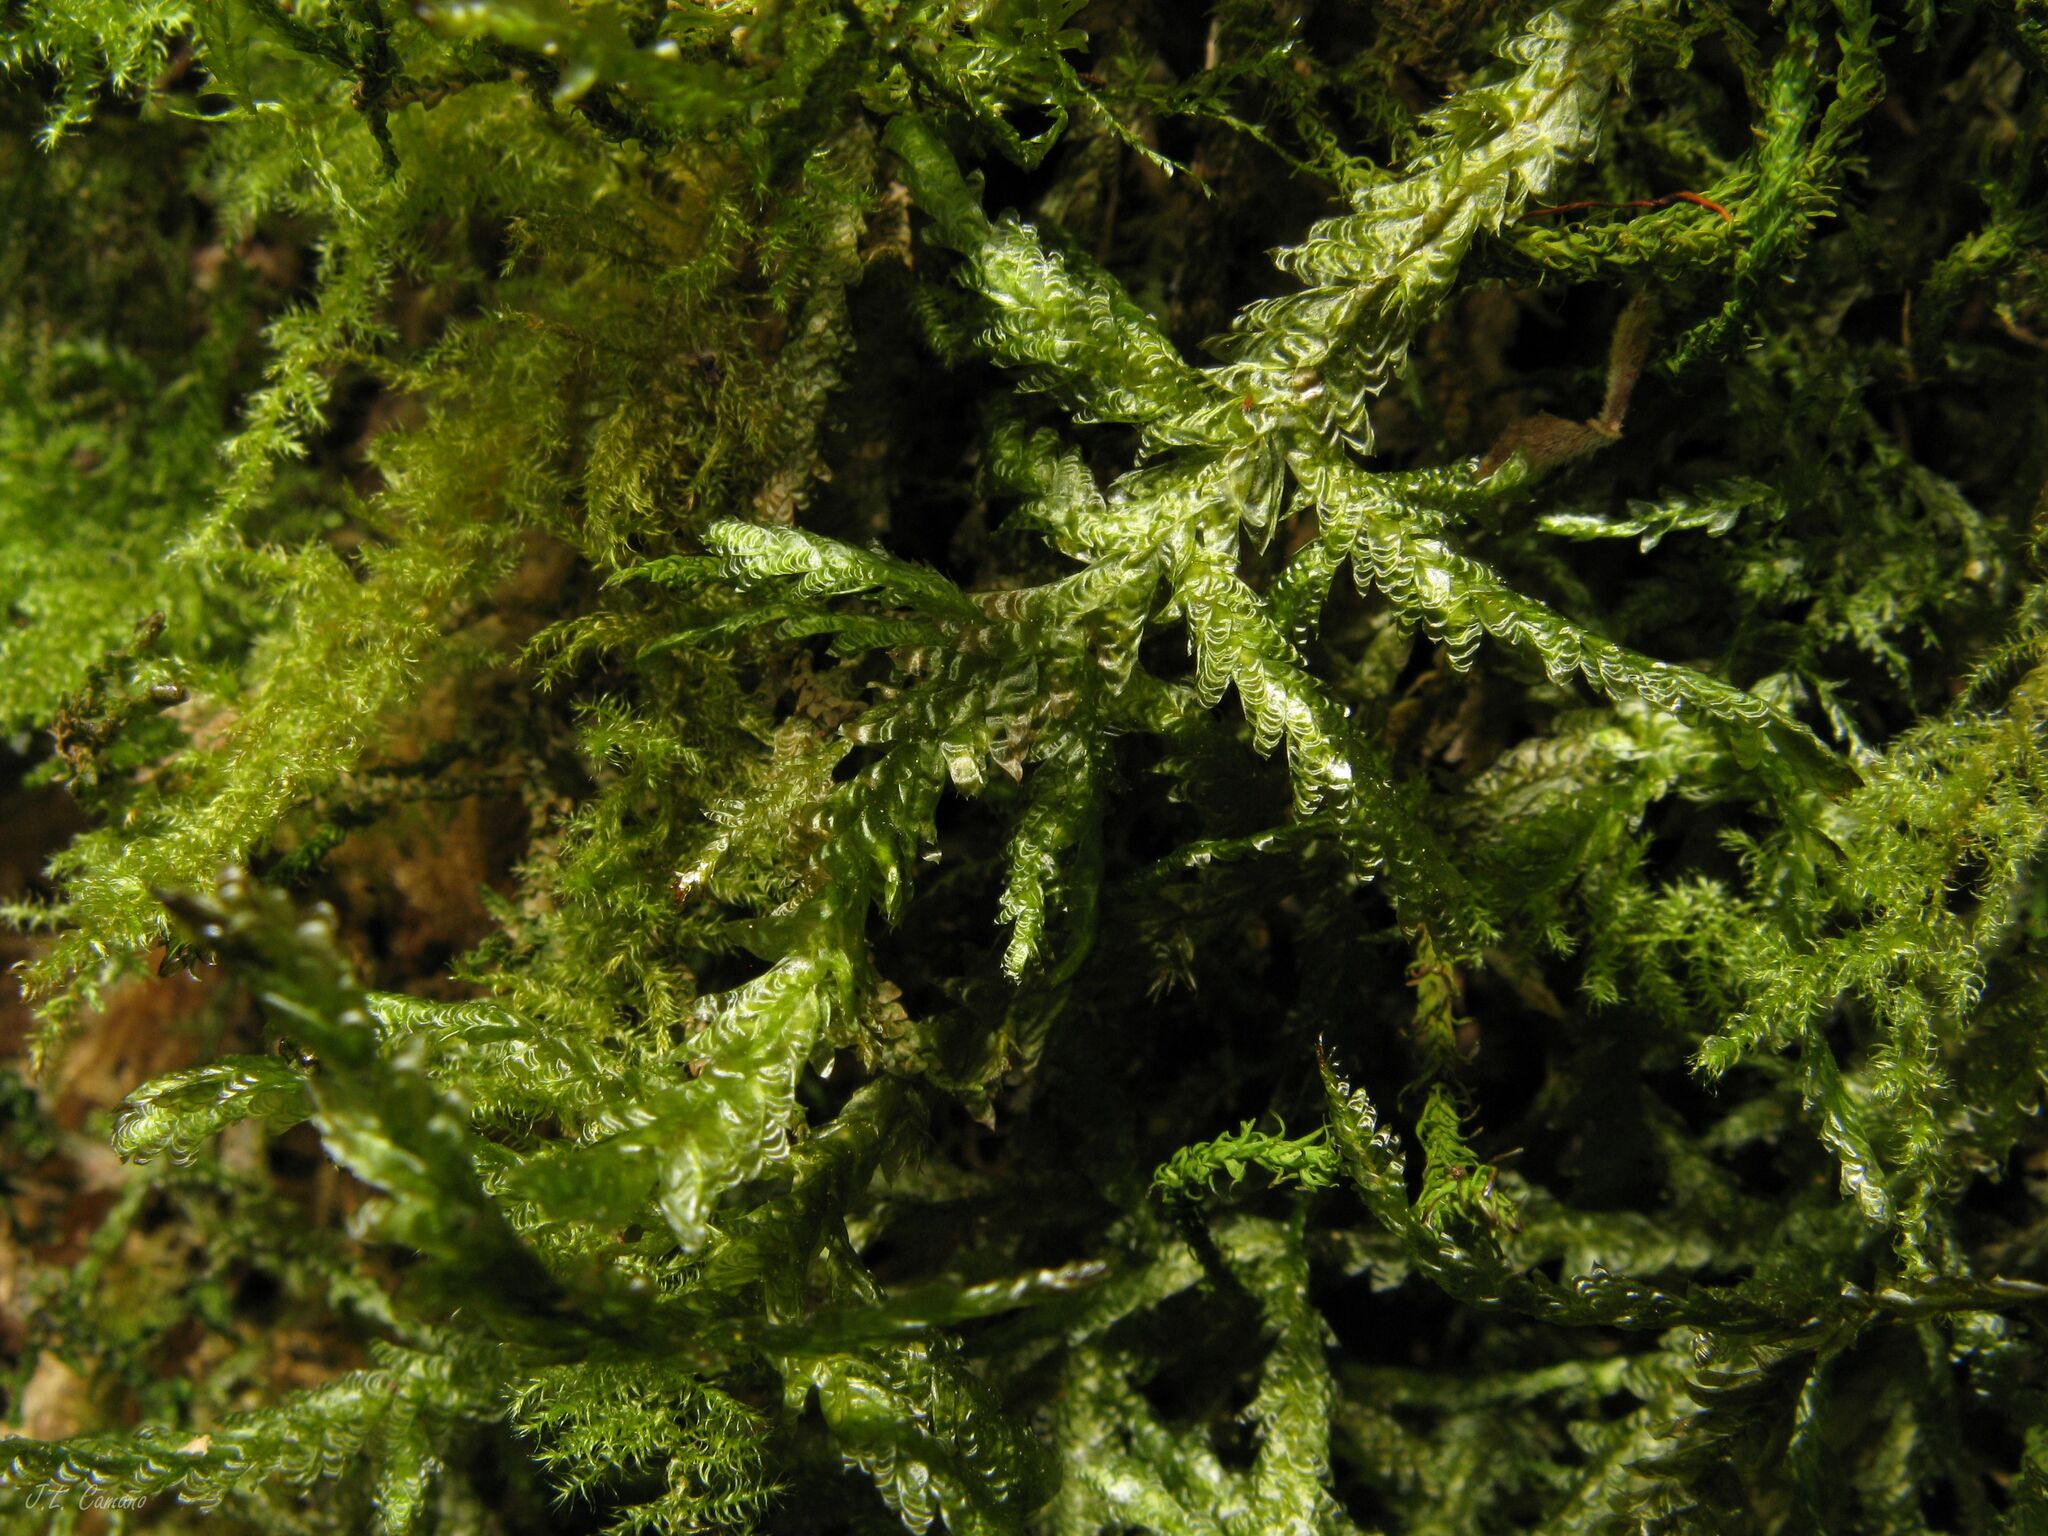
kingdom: Plantae
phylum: Bryophyta
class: Bryopsida
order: Hypnales
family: Neckeraceae
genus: Exsertotheca
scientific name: Exsertotheca crispa
